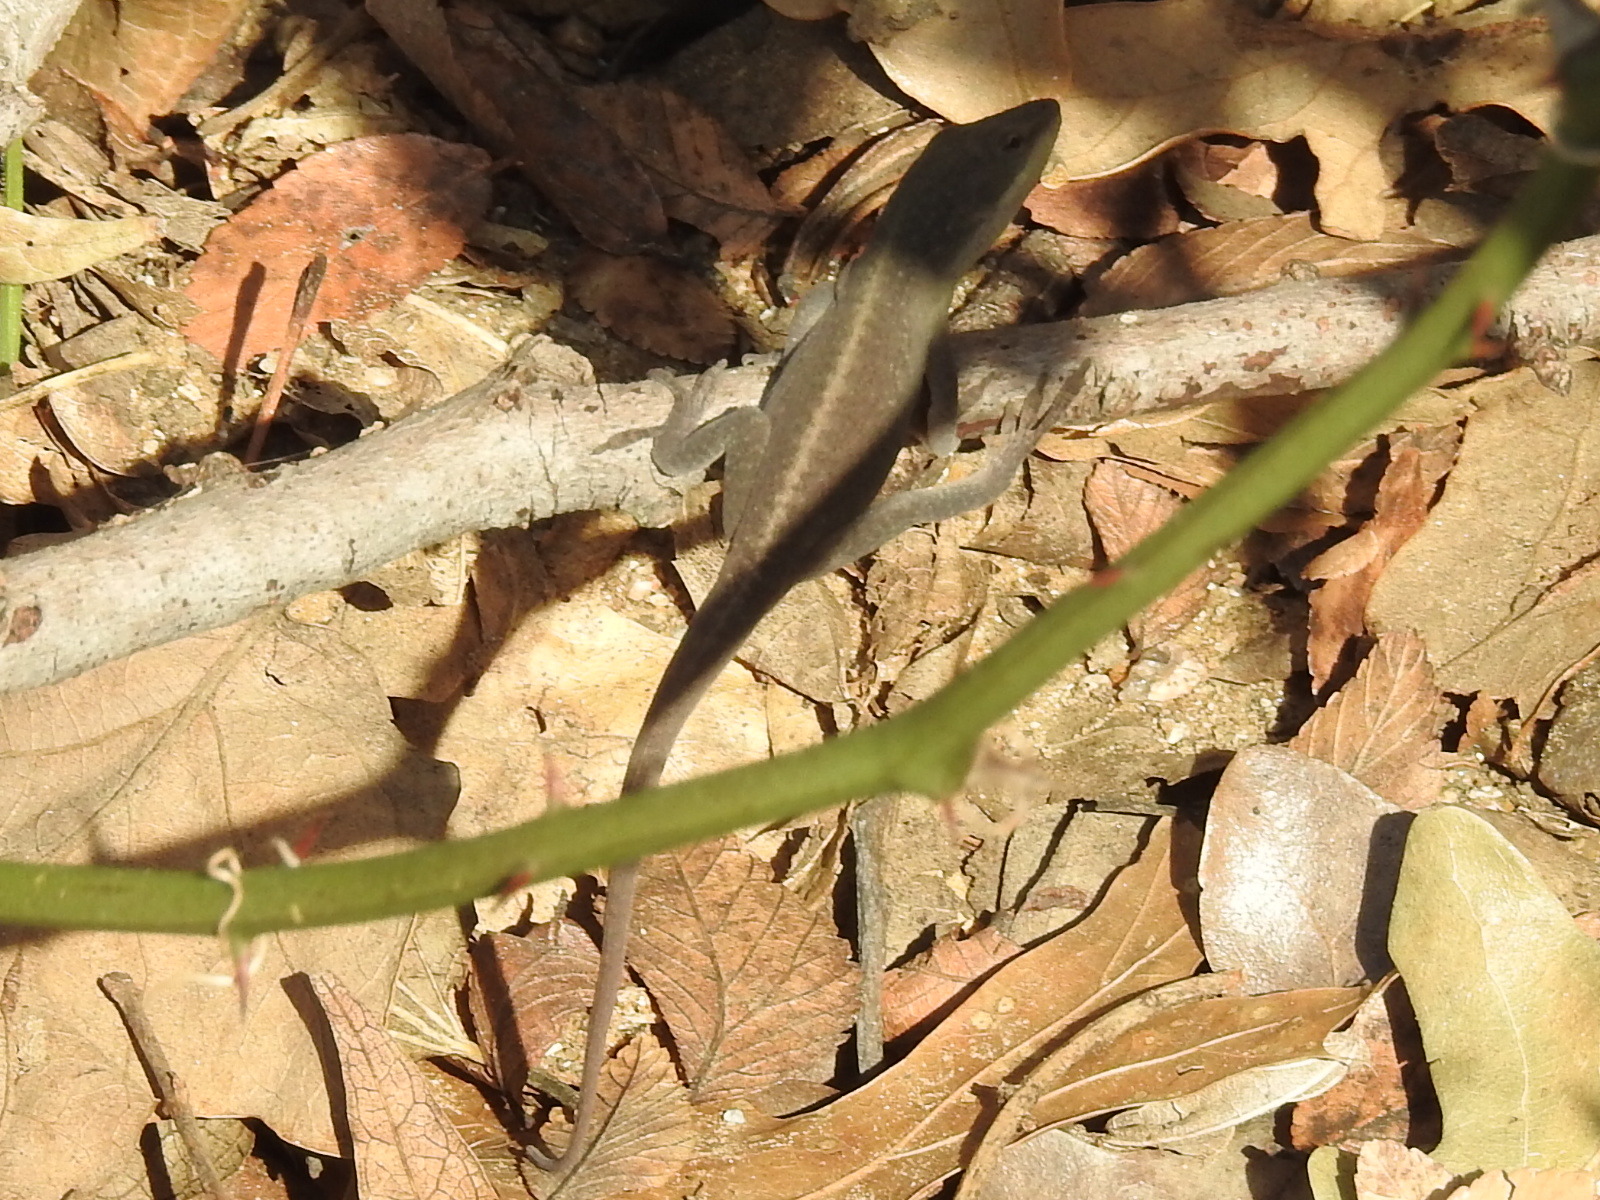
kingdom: Animalia
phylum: Chordata
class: Squamata
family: Dactyloidae
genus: Anolis
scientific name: Anolis carolinensis
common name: Green anole
